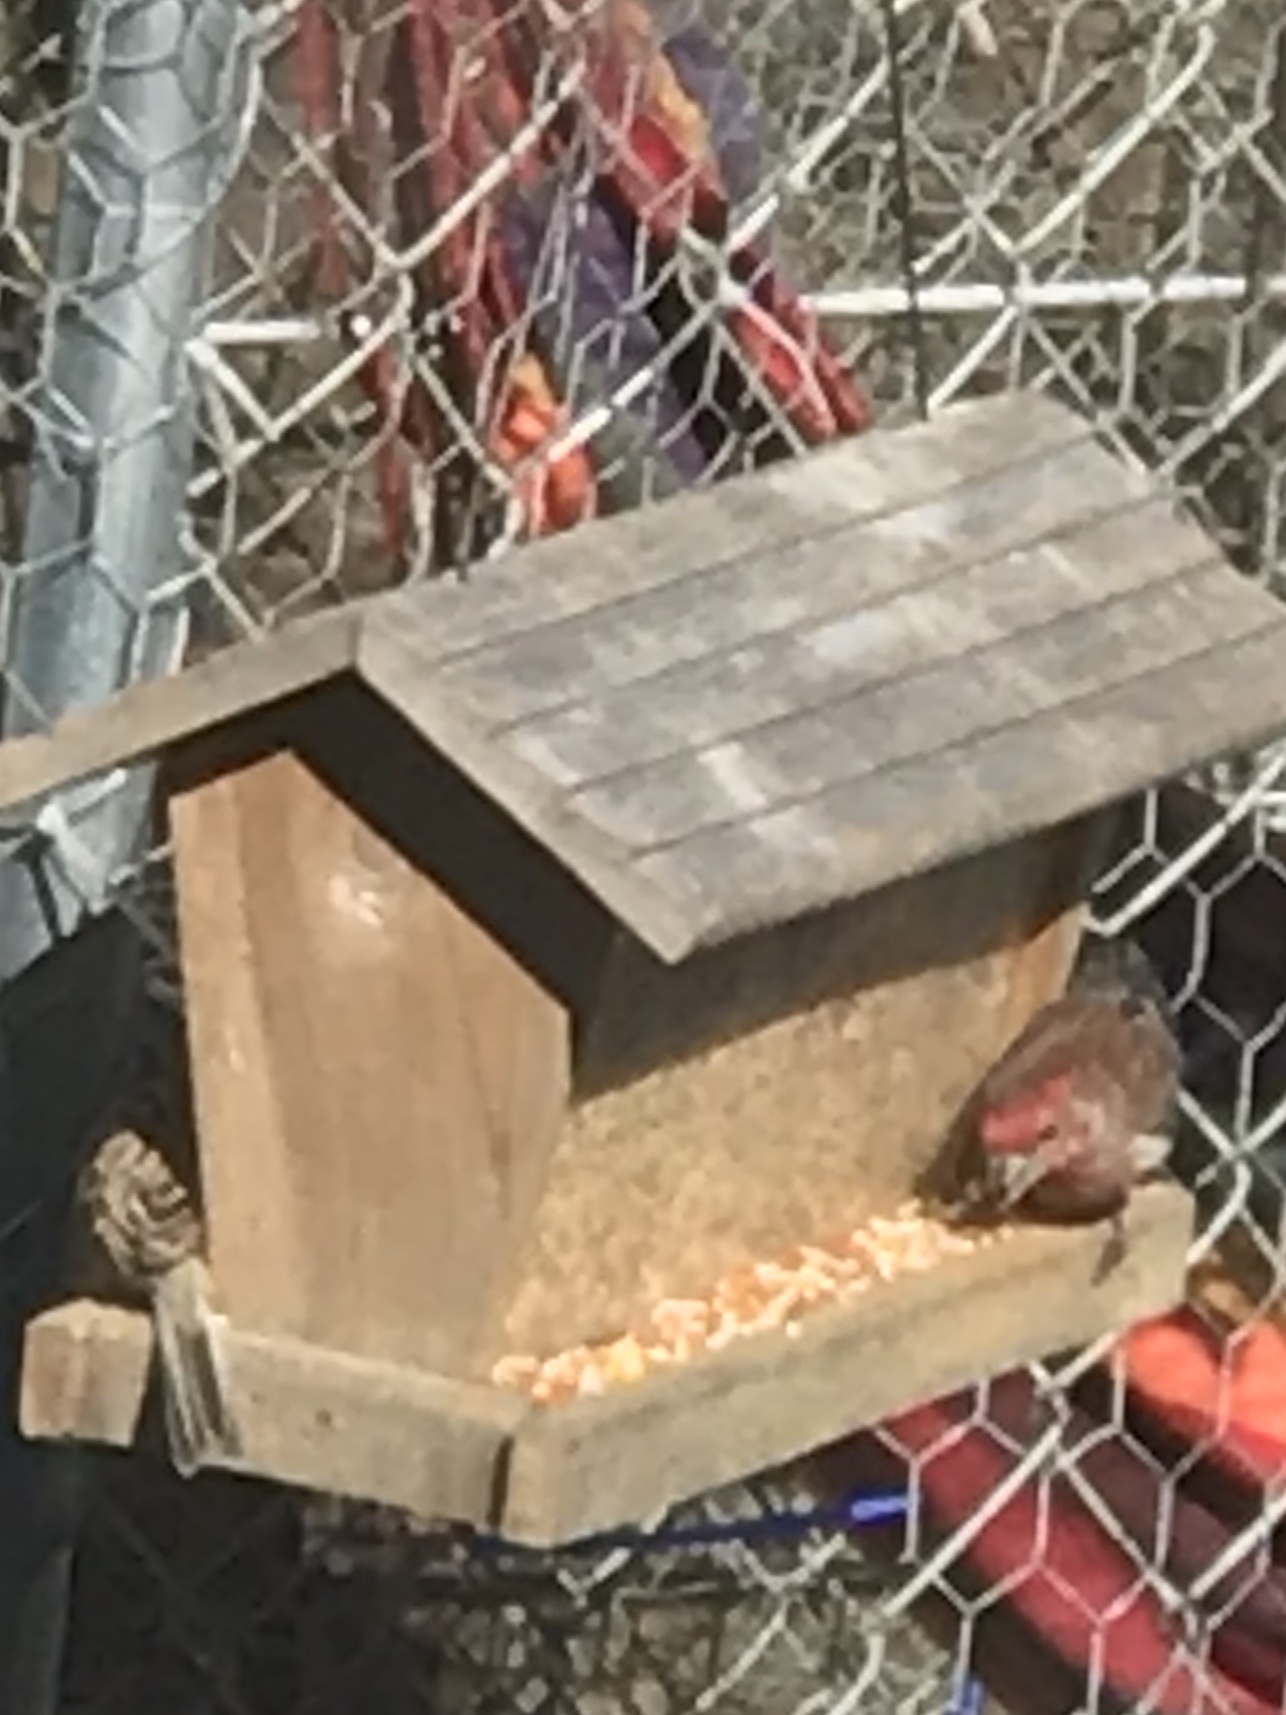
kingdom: Animalia
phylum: Chordata
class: Aves
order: Passeriformes
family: Fringillidae
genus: Haemorhous
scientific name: Haemorhous mexicanus
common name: House finch
